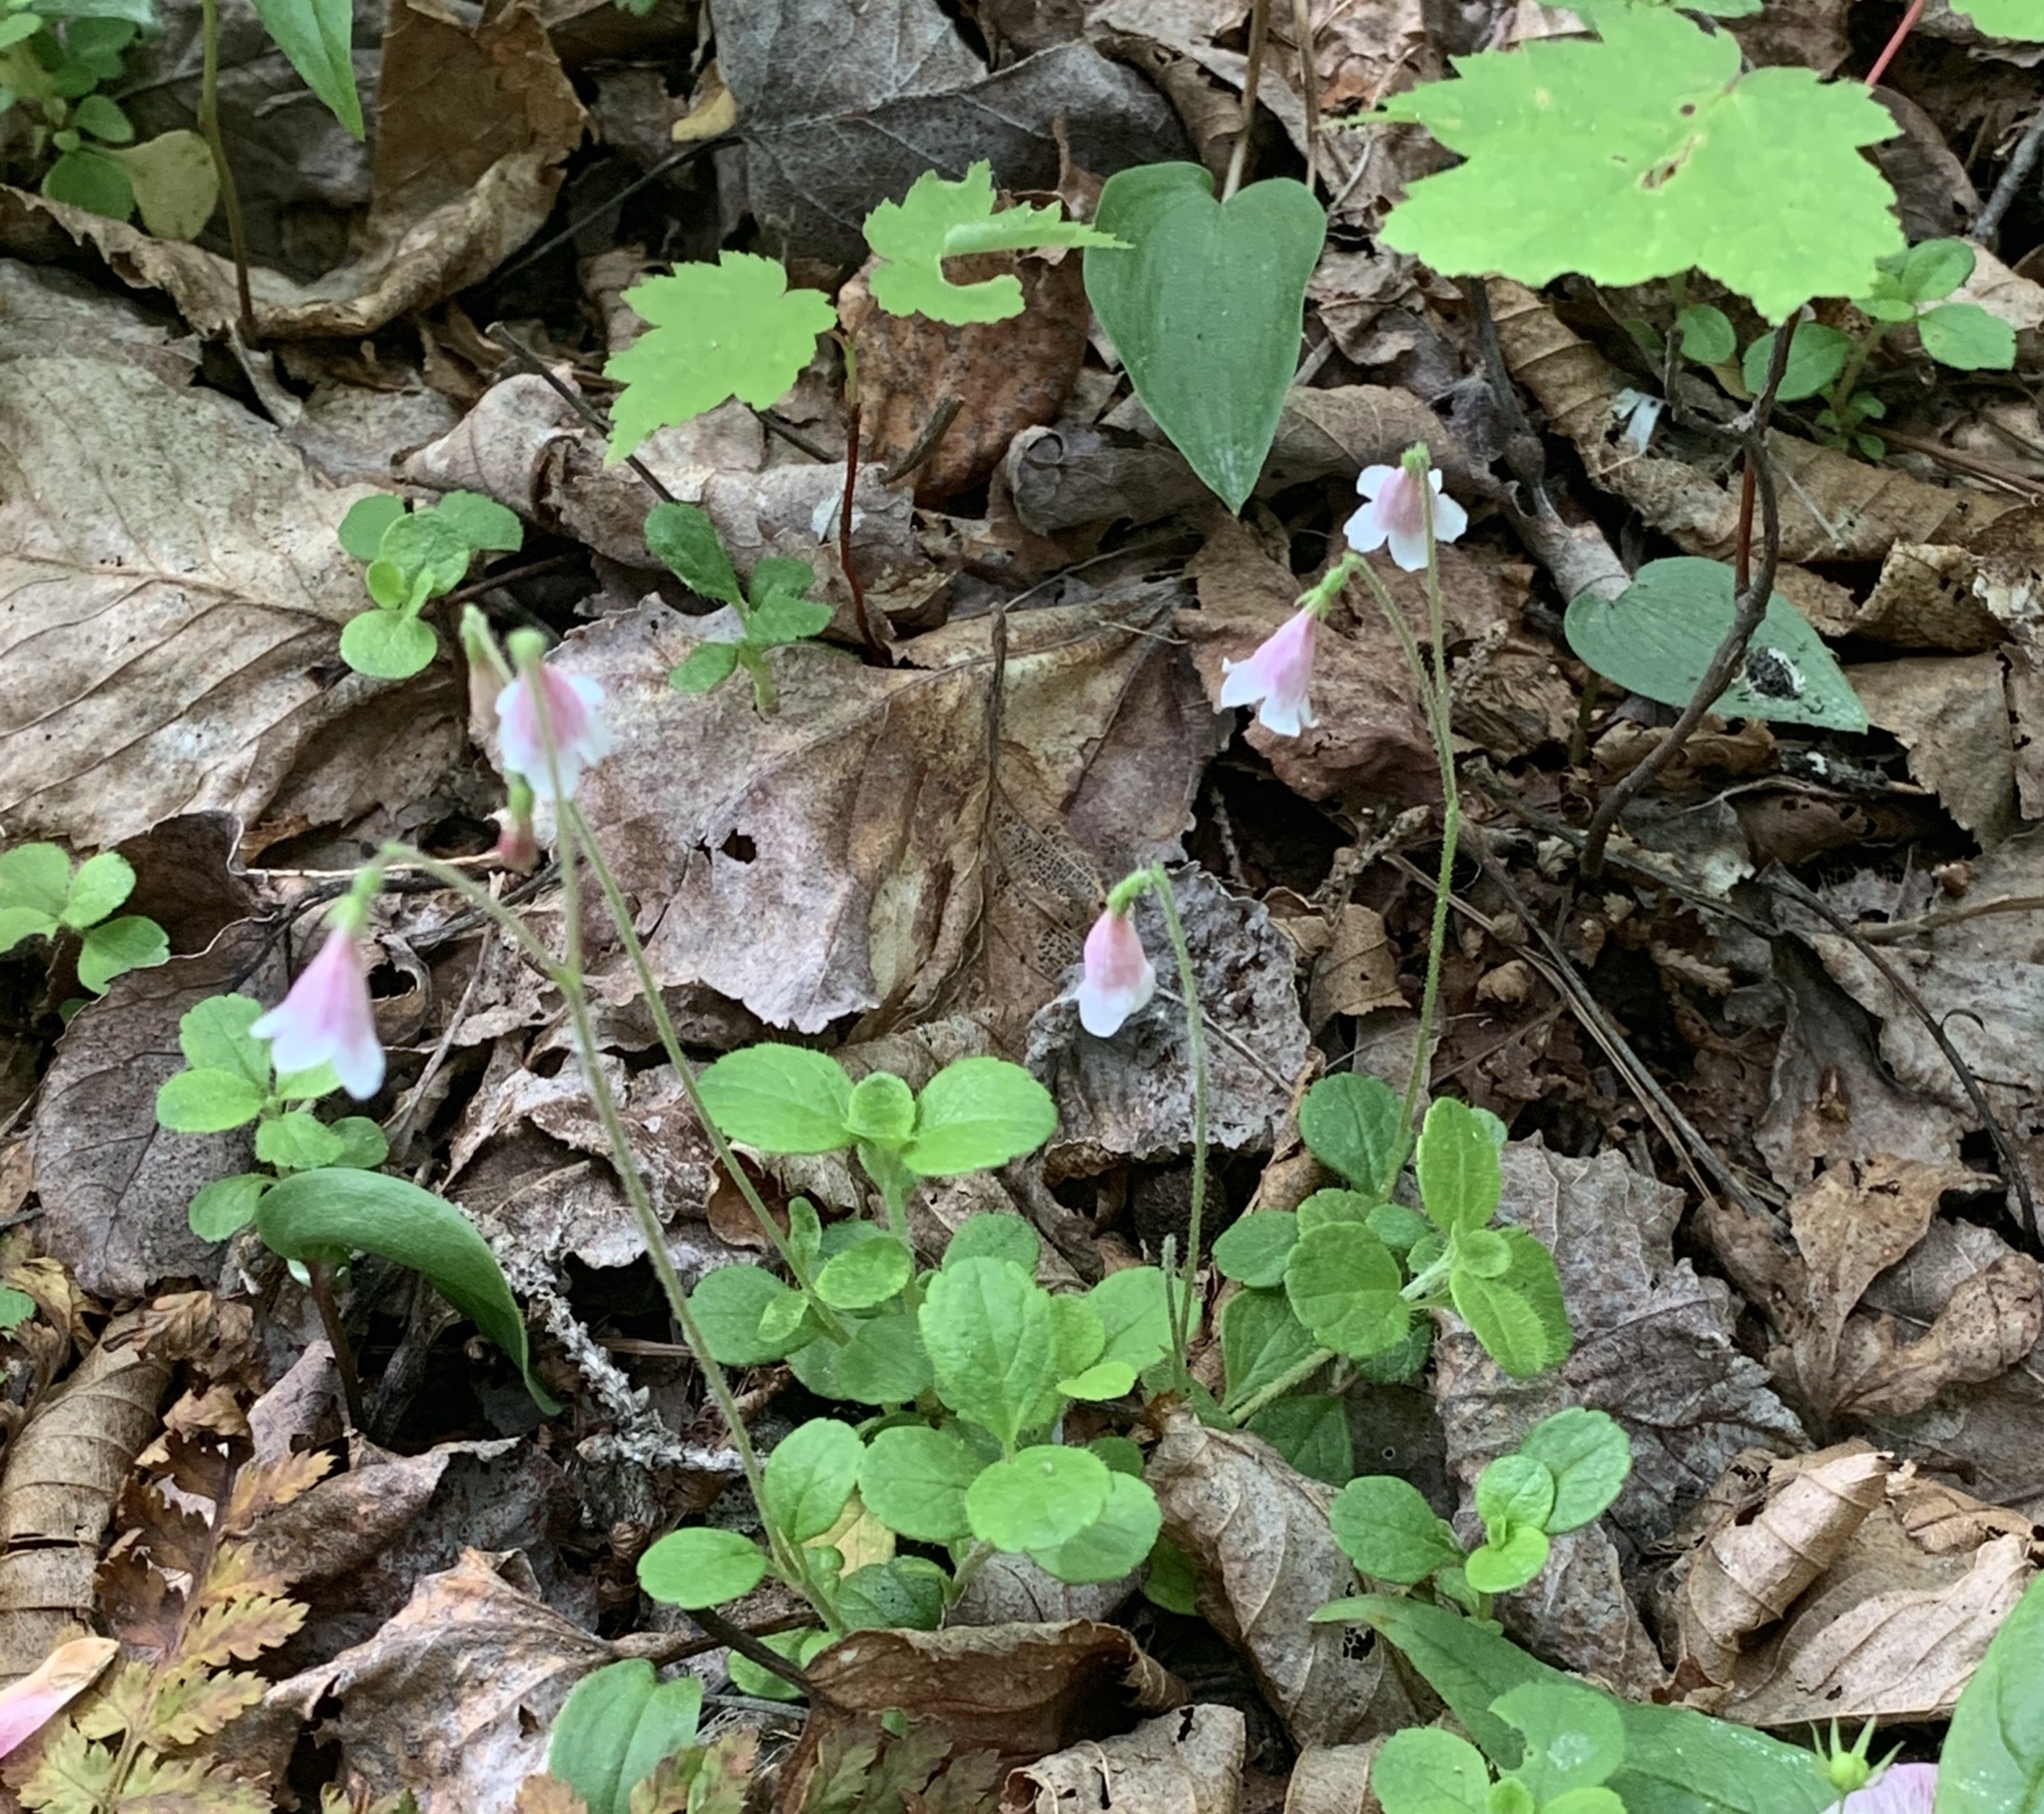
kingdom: Plantae
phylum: Tracheophyta
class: Magnoliopsida
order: Dipsacales
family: Caprifoliaceae
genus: Linnaea
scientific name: Linnaea borealis
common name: Twinflower
